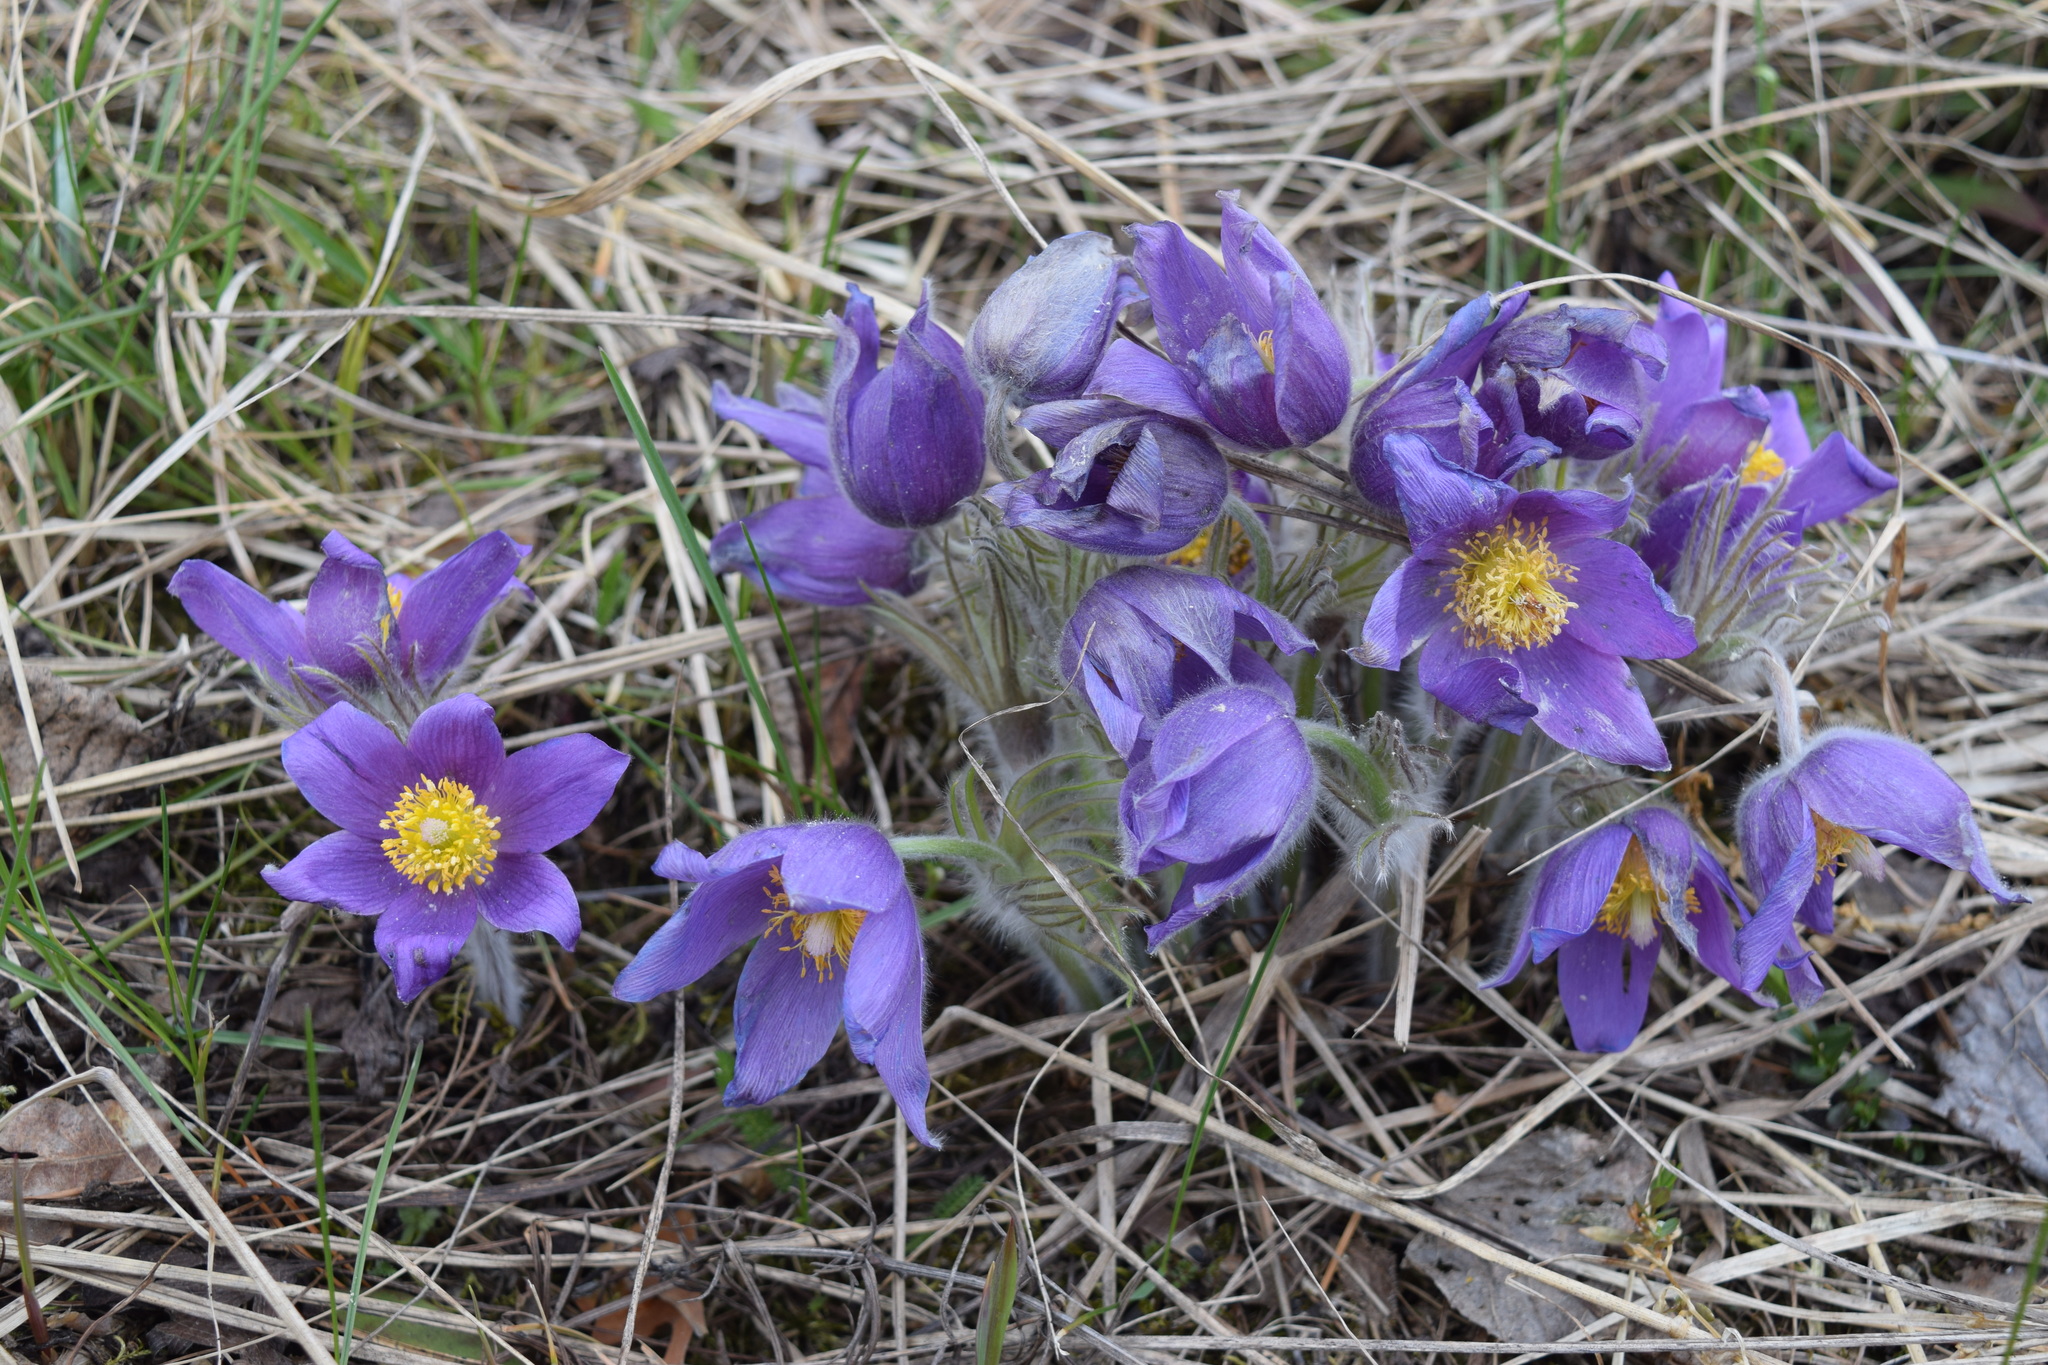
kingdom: Plantae
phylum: Tracheophyta
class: Magnoliopsida
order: Ranunculales
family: Ranunculaceae
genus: Pulsatilla
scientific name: Pulsatilla patens
